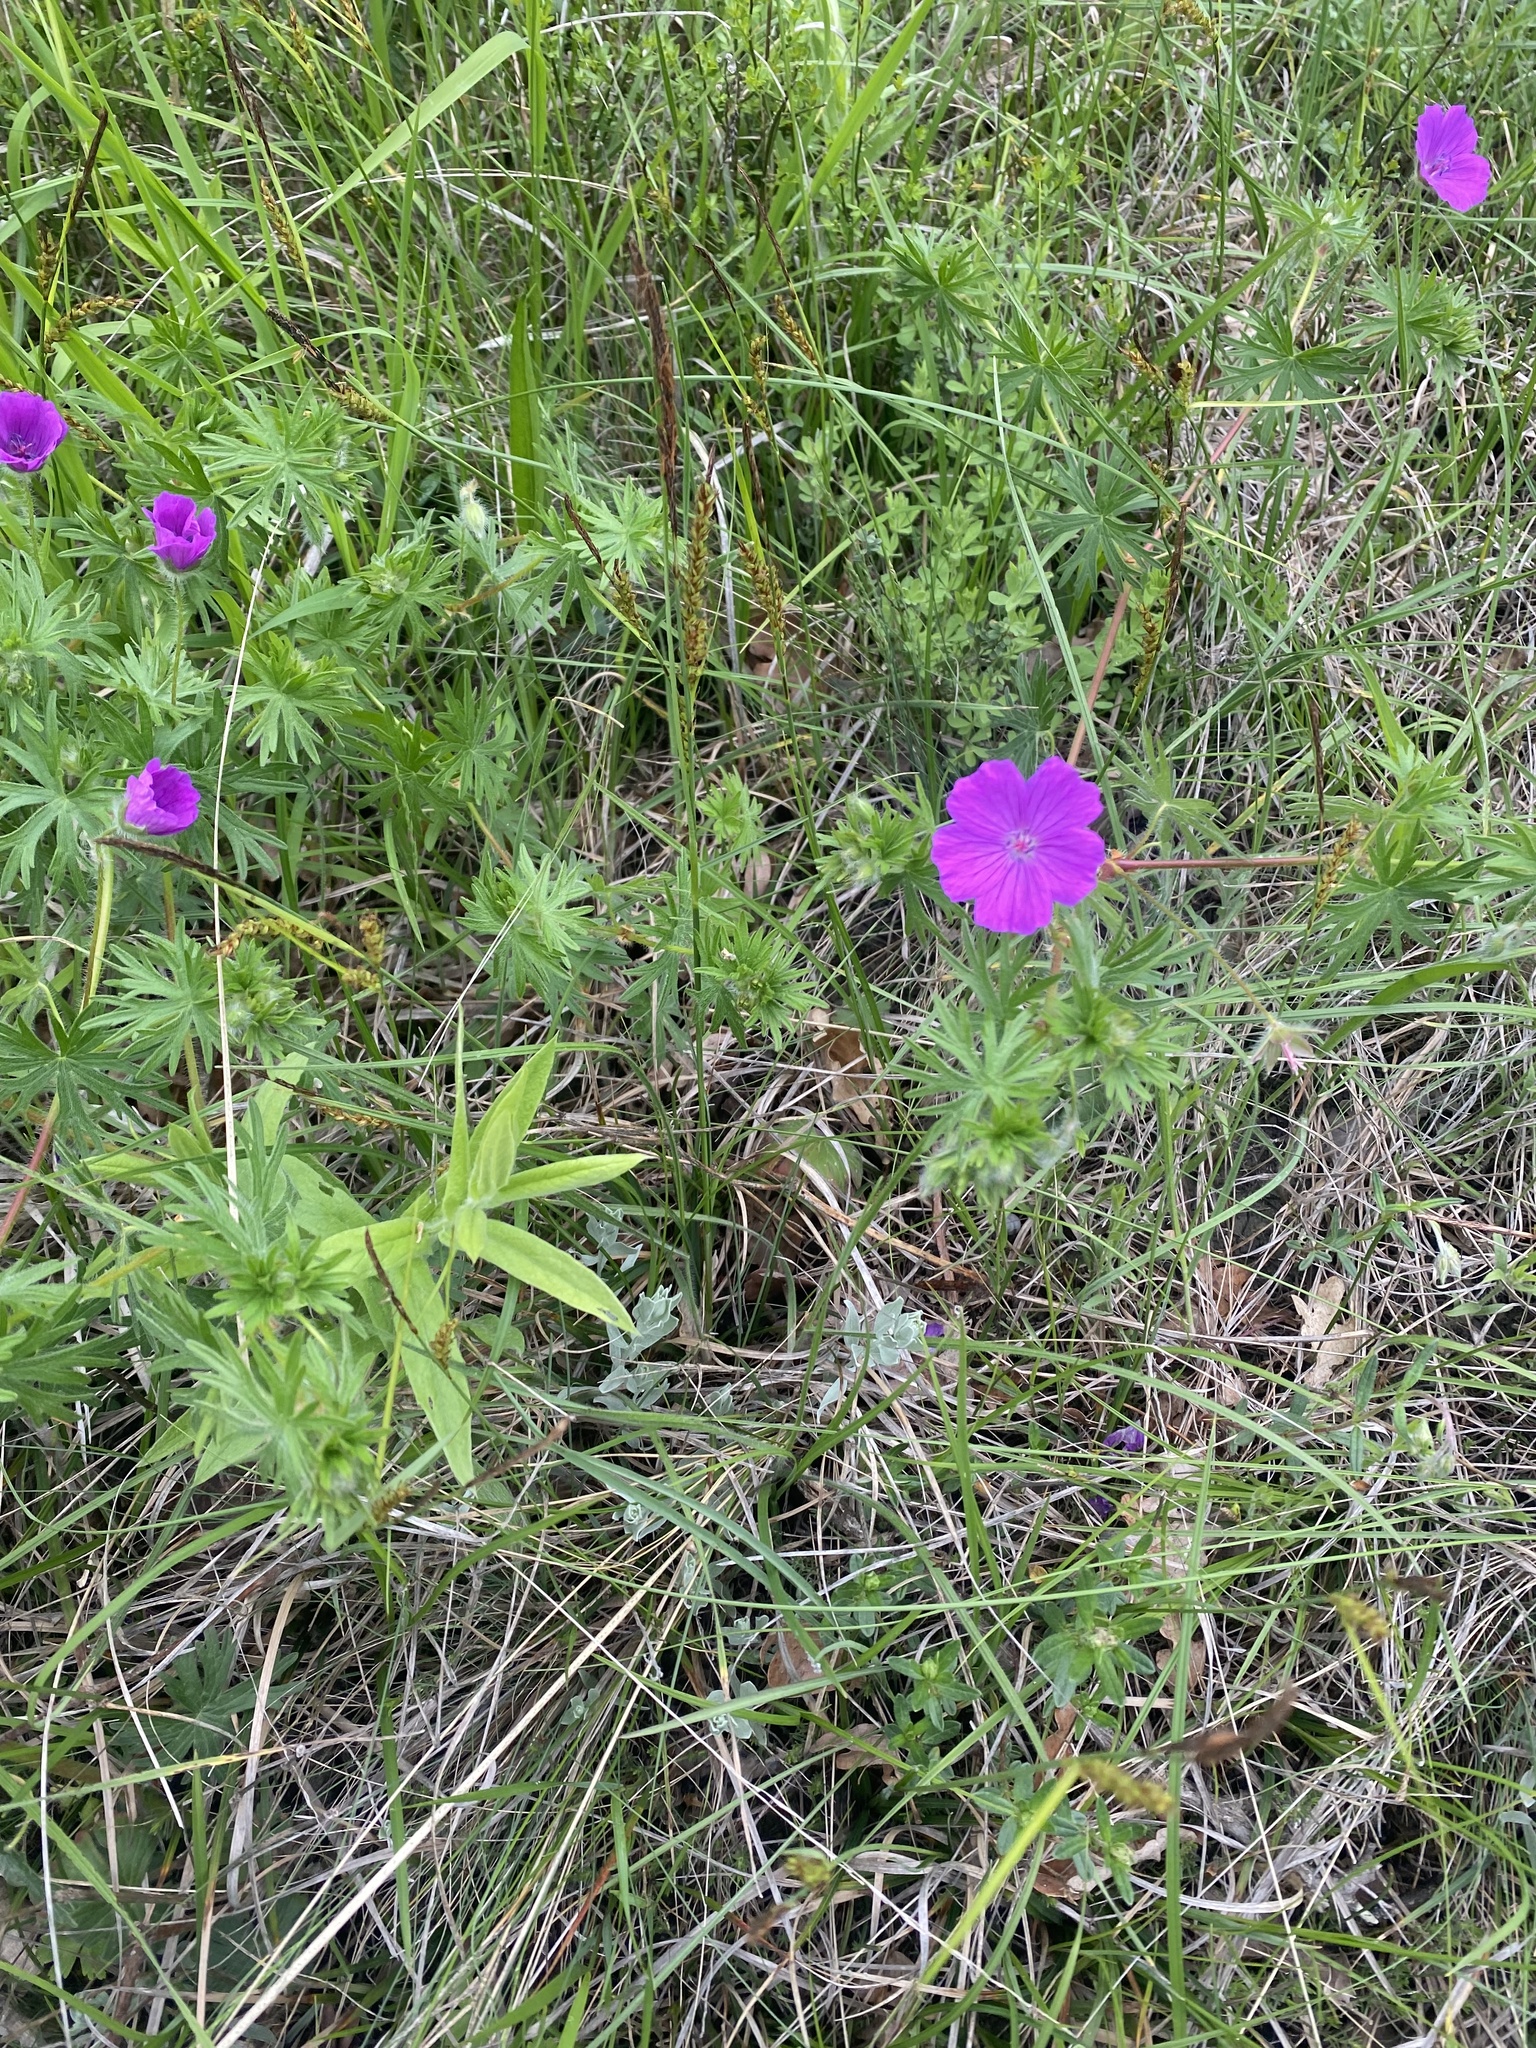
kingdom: Plantae
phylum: Tracheophyta
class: Magnoliopsida
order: Geraniales
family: Geraniaceae
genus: Geranium
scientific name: Geranium sanguineum
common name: Bloody crane's-bill
